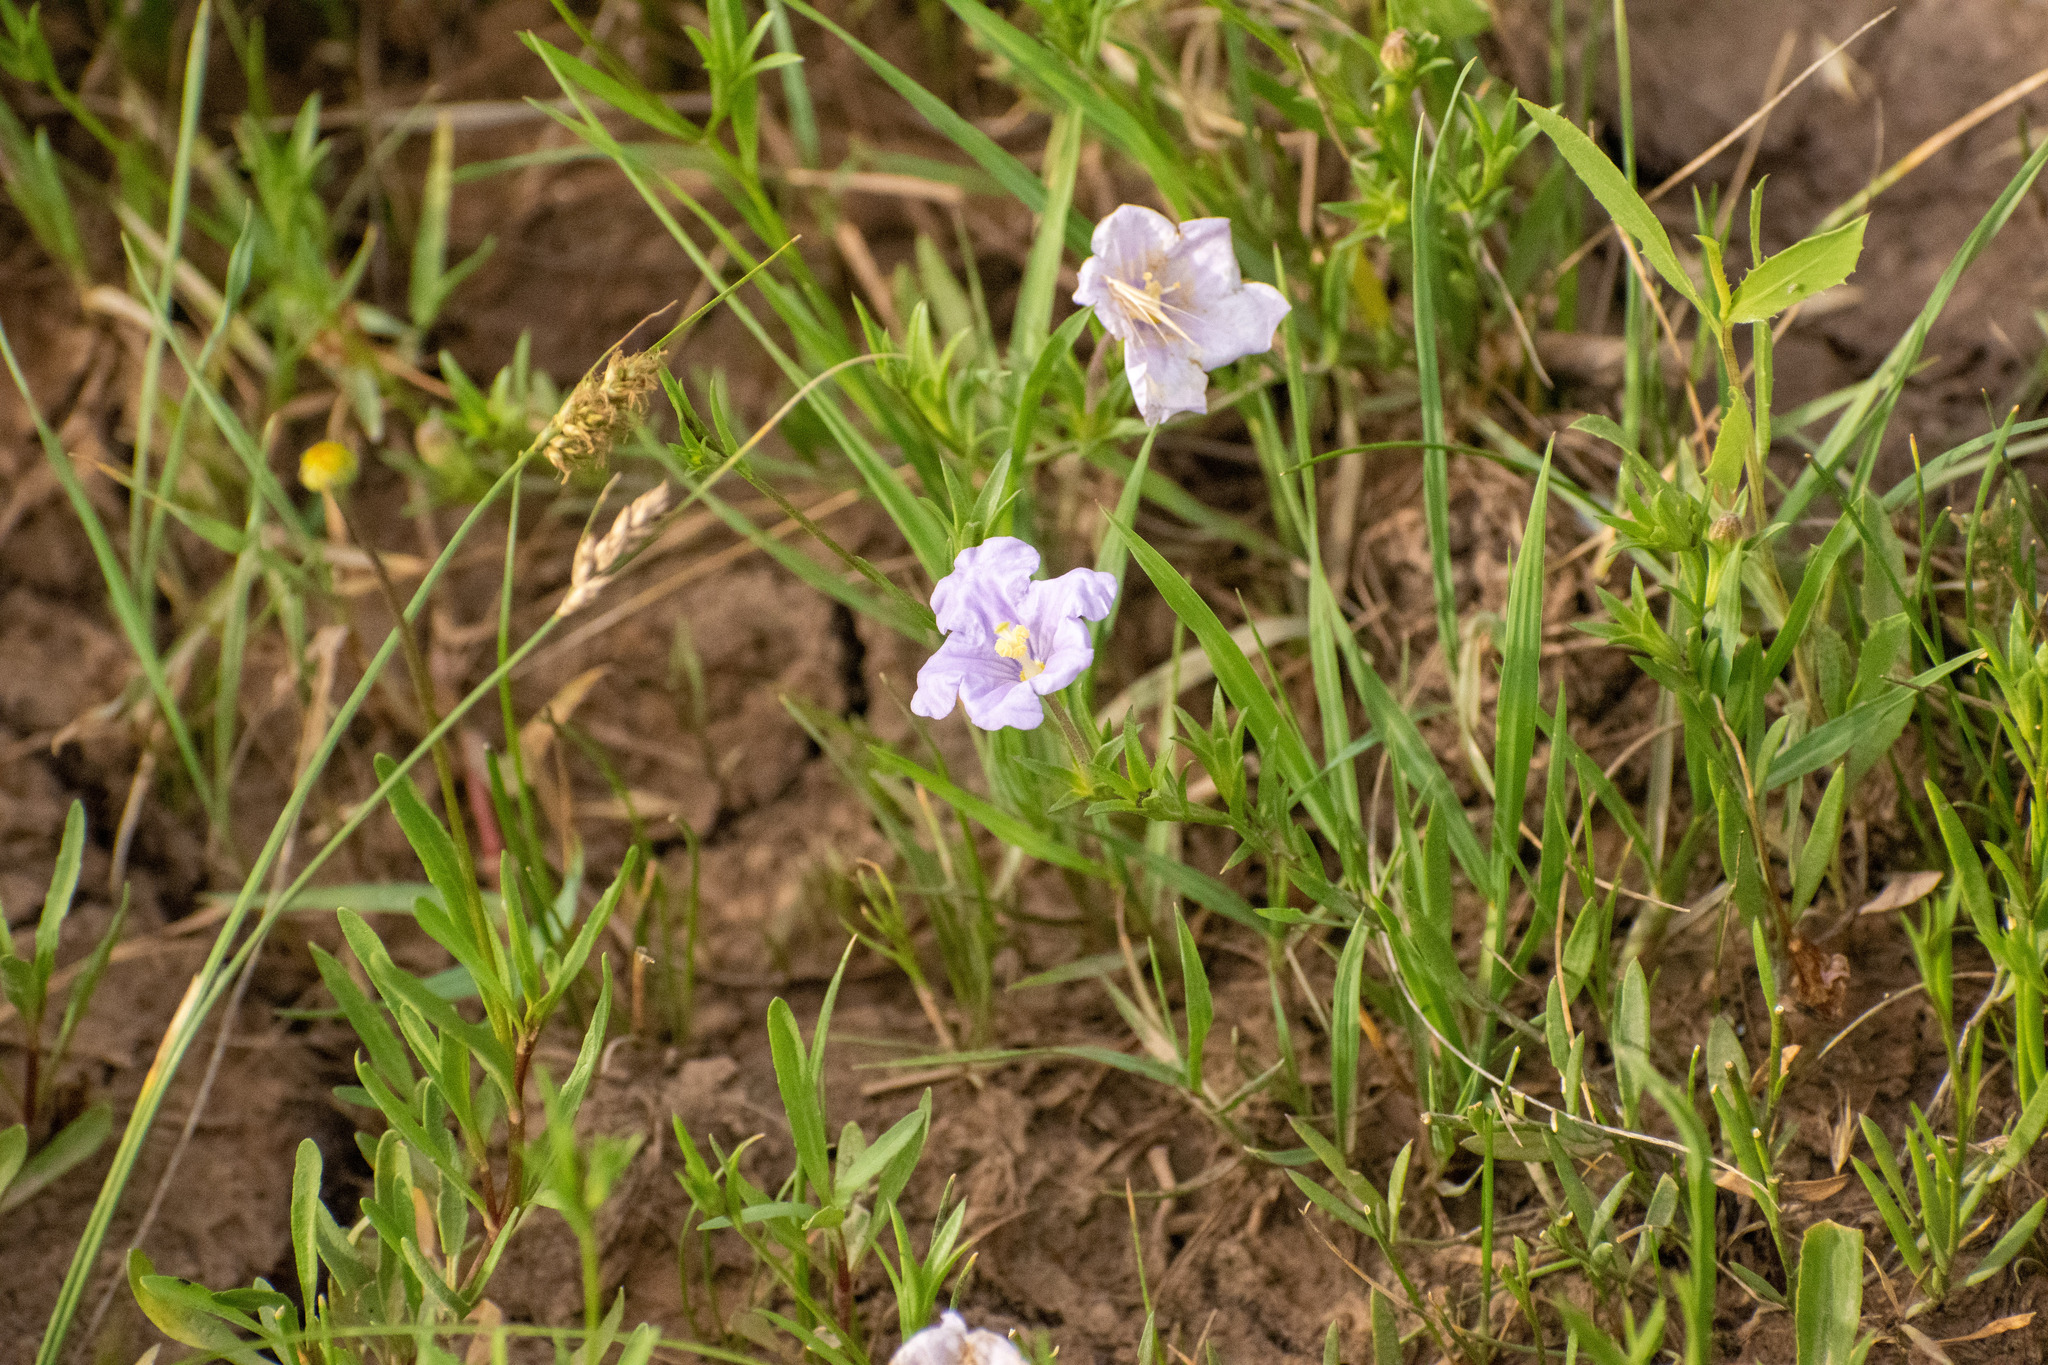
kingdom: Plantae
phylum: Tracheophyta
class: Magnoliopsida
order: Solanales
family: Solanaceae
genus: Nierembergia
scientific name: Nierembergia aristata
